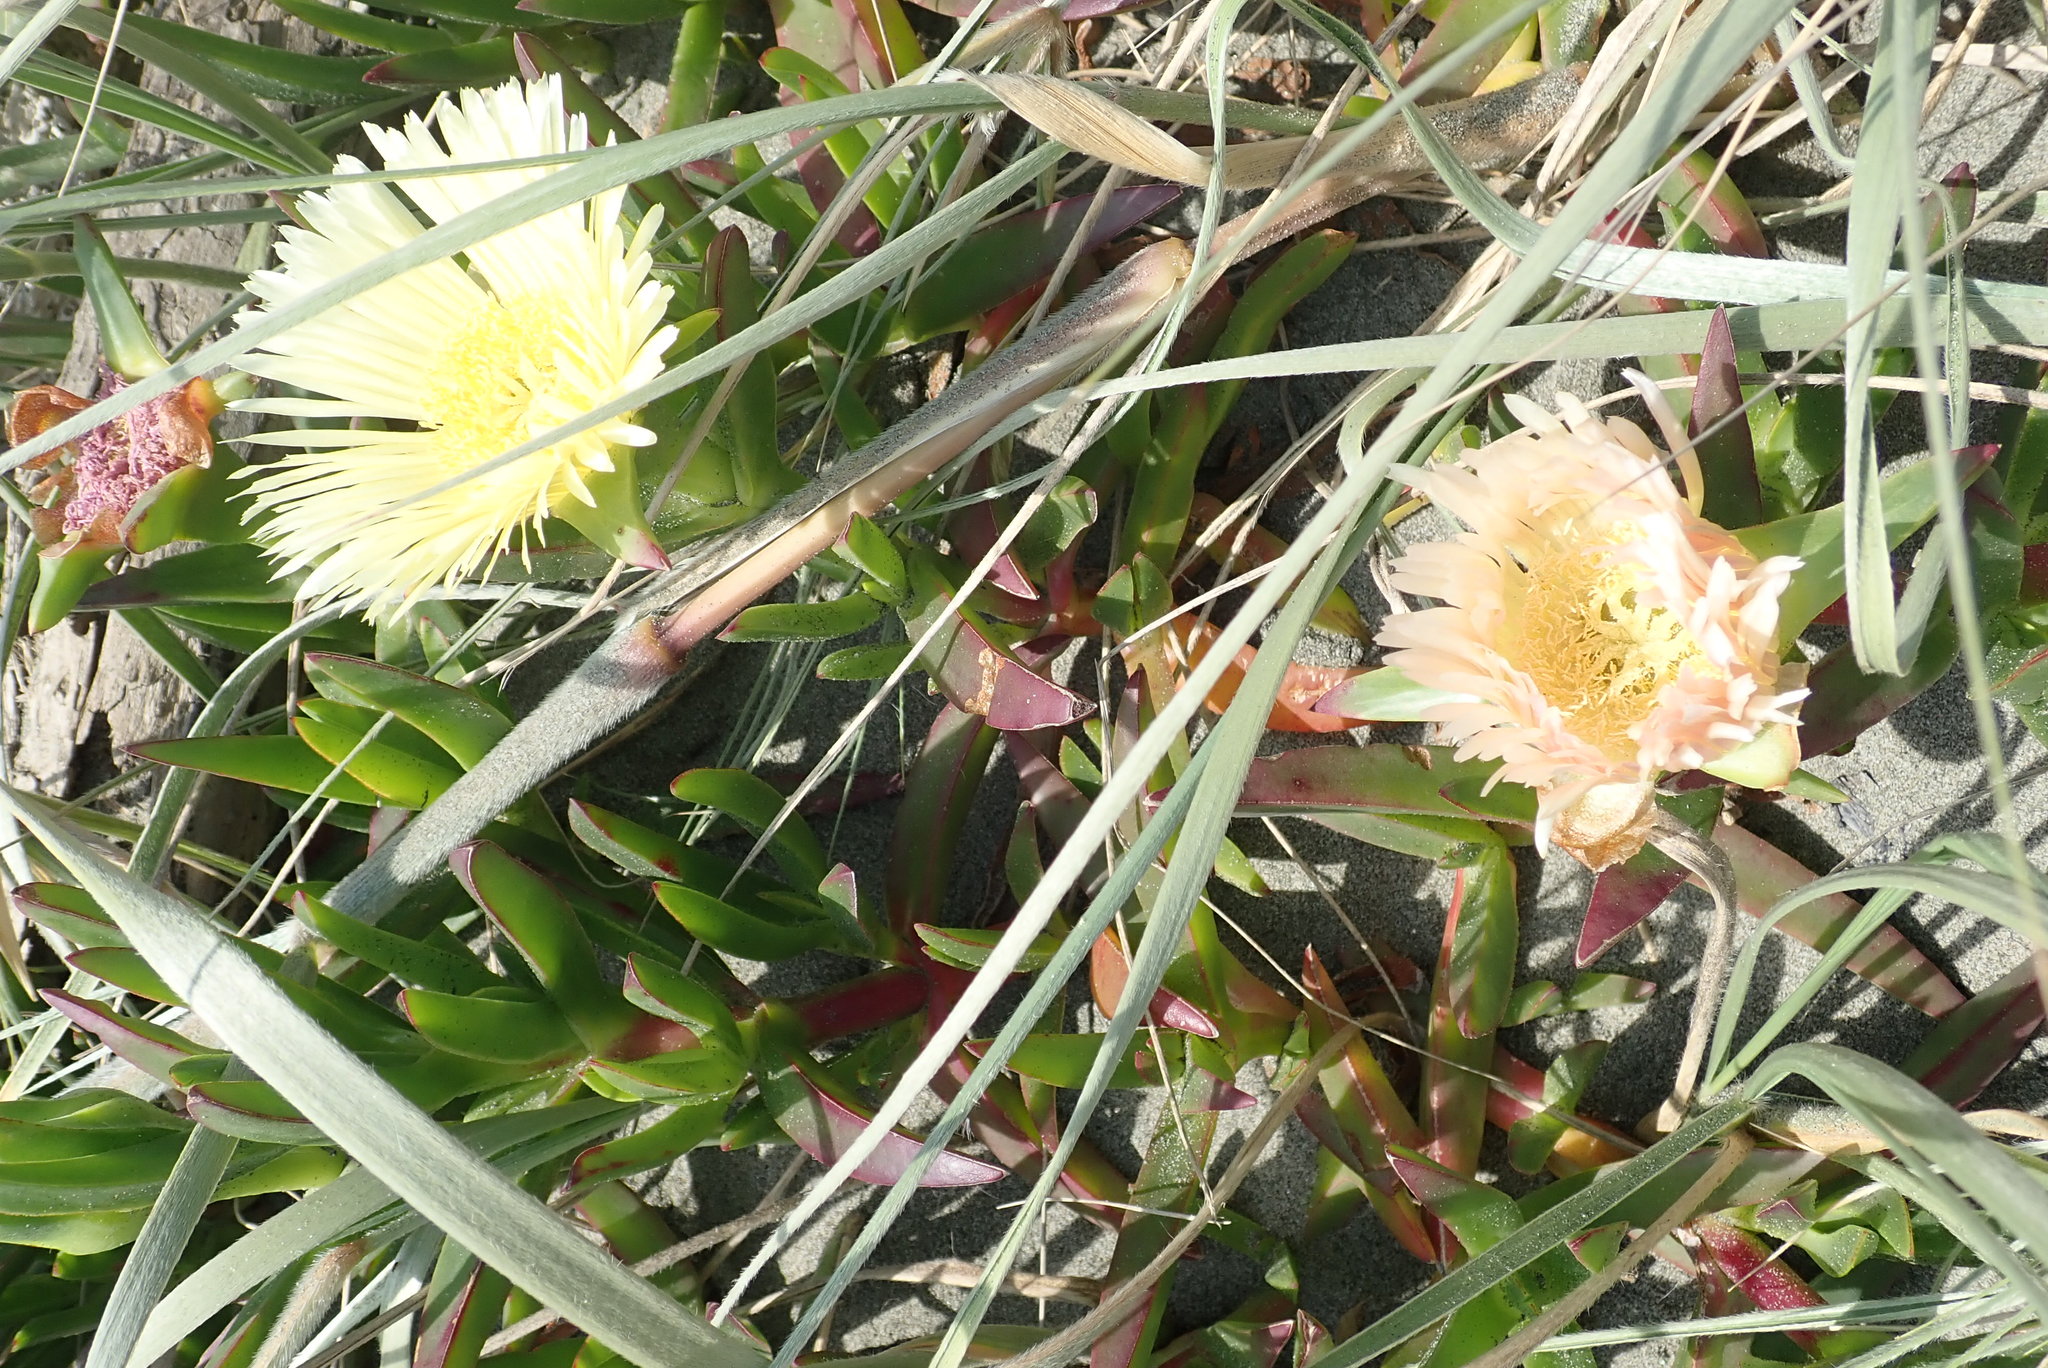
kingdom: Plantae
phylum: Tracheophyta
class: Magnoliopsida
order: Caryophyllales
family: Aizoaceae
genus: Carpobrotus
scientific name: Carpobrotus edulis
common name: Hottentot-fig
